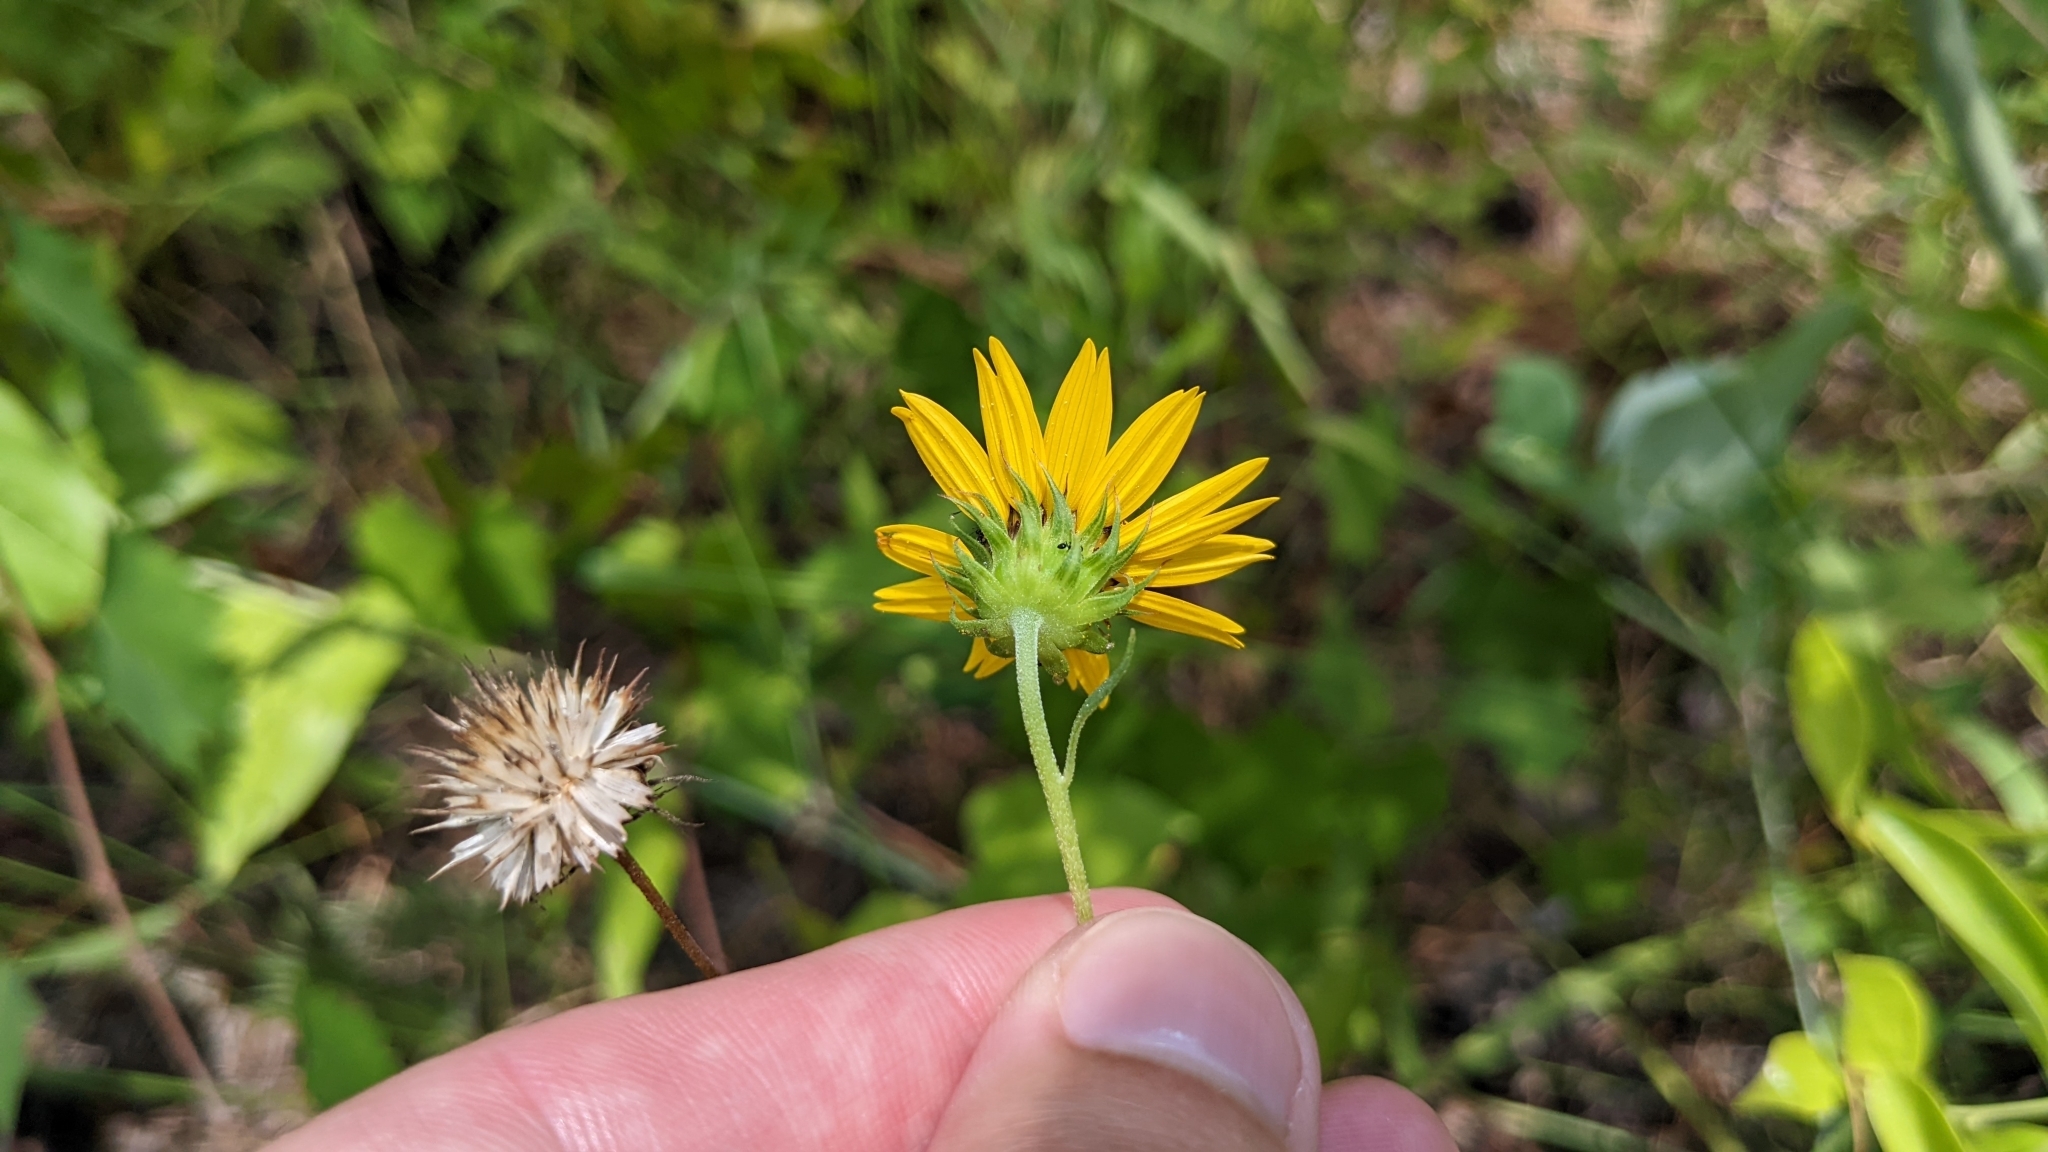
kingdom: Plantae
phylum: Tracheophyta
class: Magnoliopsida
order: Asterales
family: Asteraceae
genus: Helianthus
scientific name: Helianthus debilis
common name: Weak sunflower
